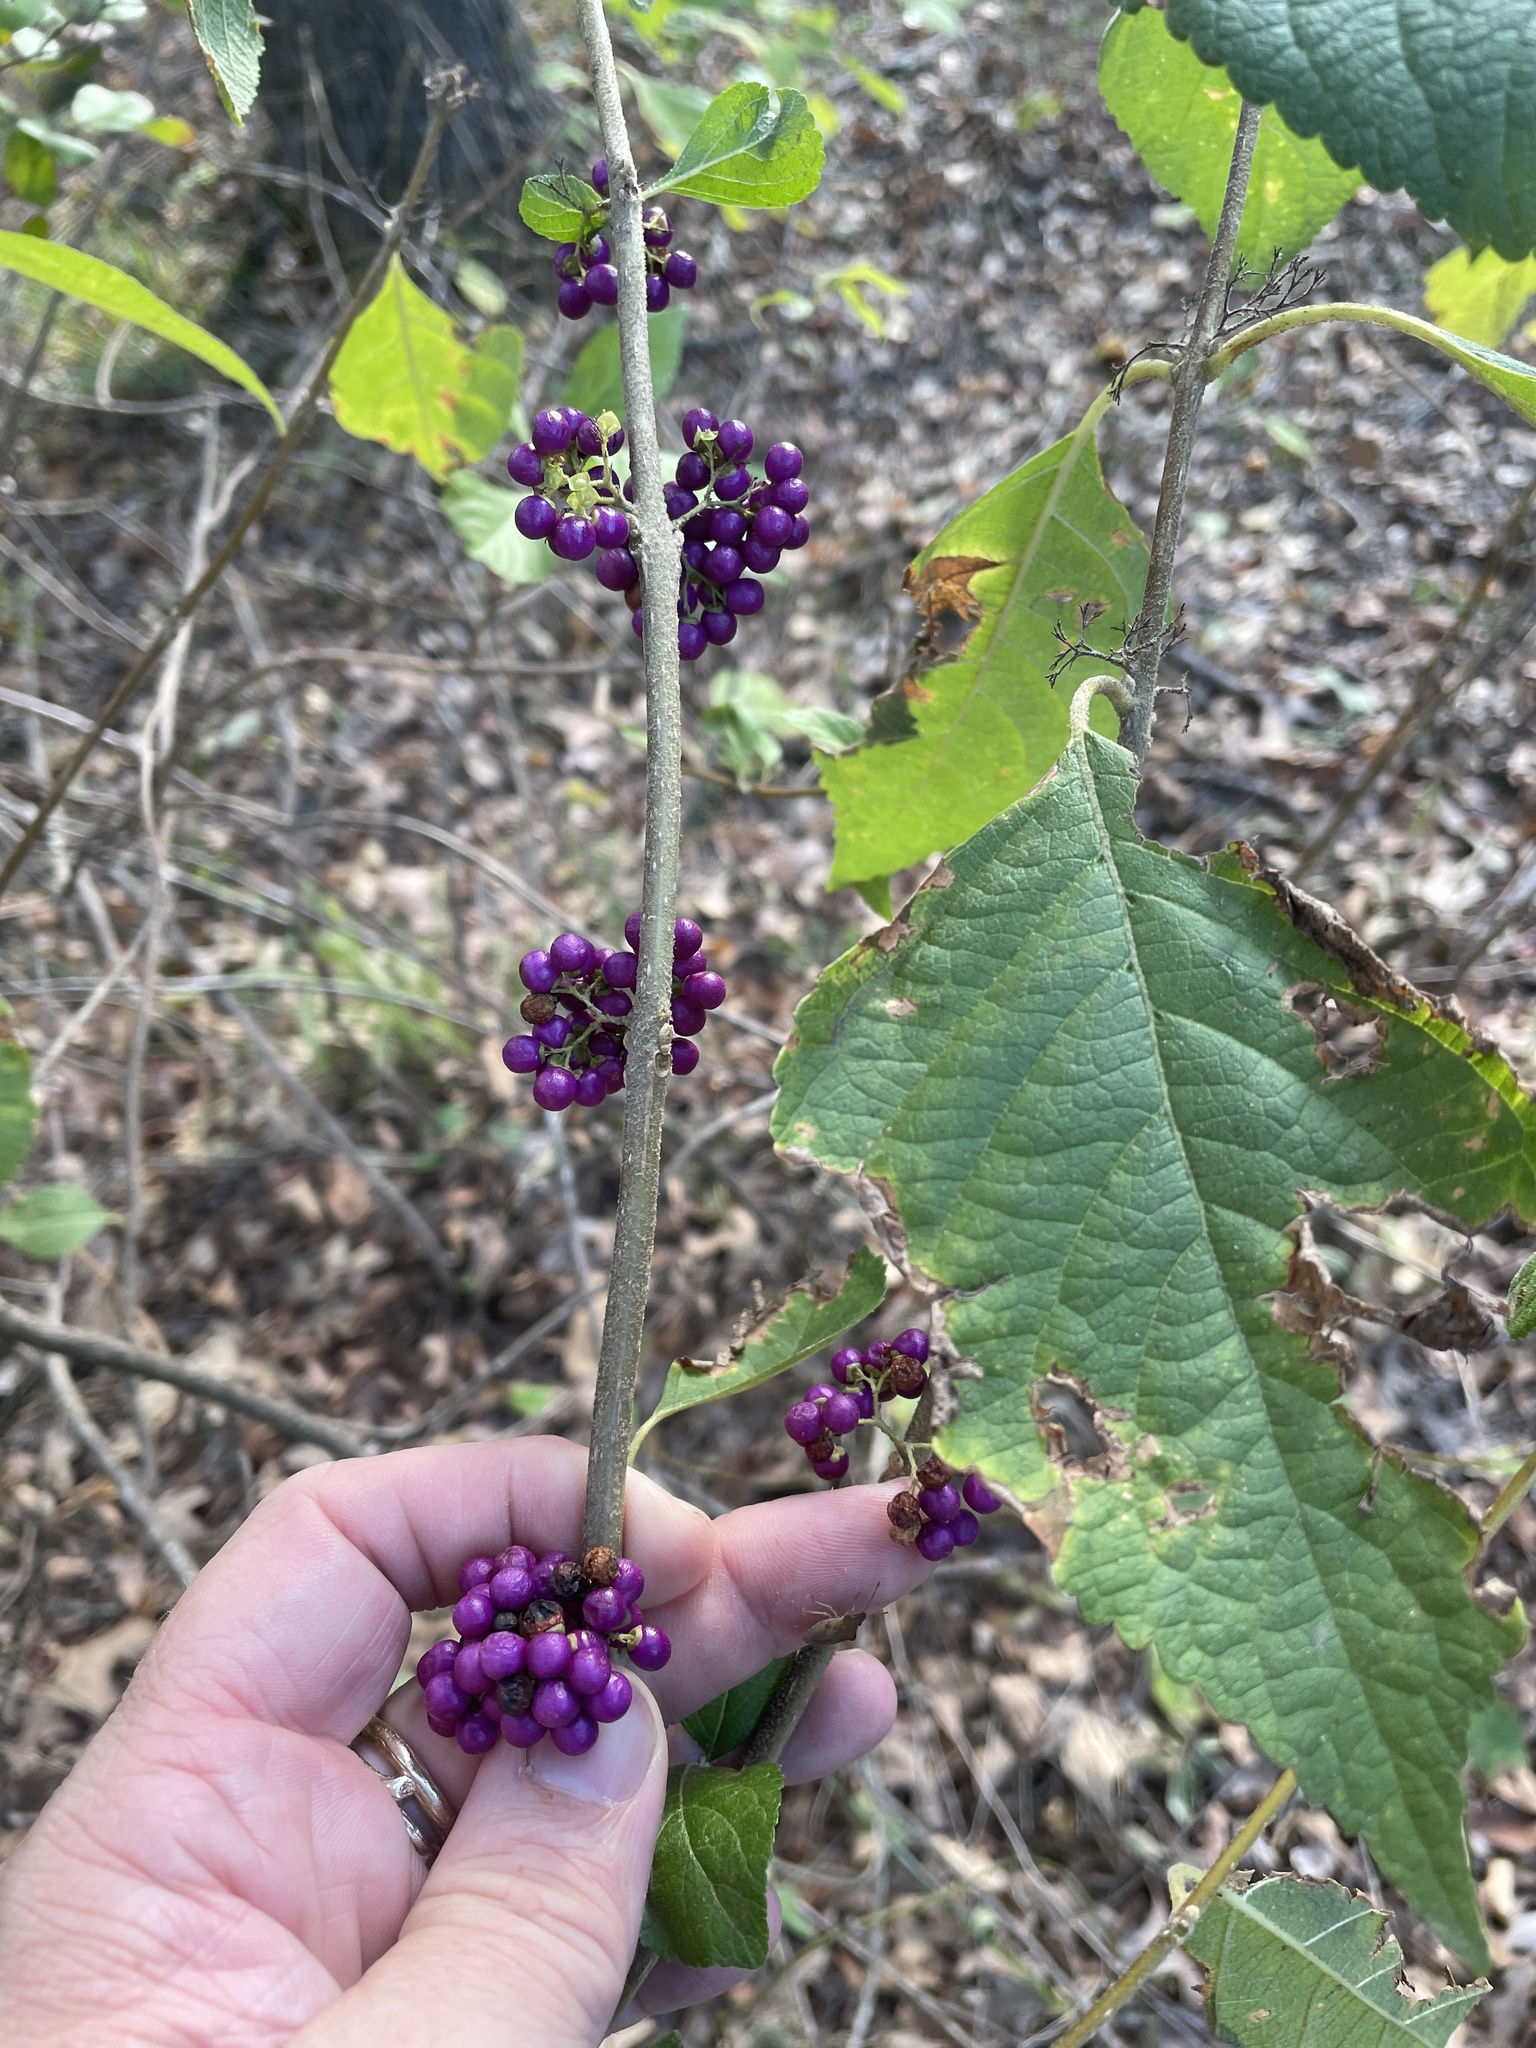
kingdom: Plantae
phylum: Tracheophyta
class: Magnoliopsida
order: Lamiales
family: Lamiaceae
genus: Callicarpa
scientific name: Callicarpa americana
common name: American beautyberry
